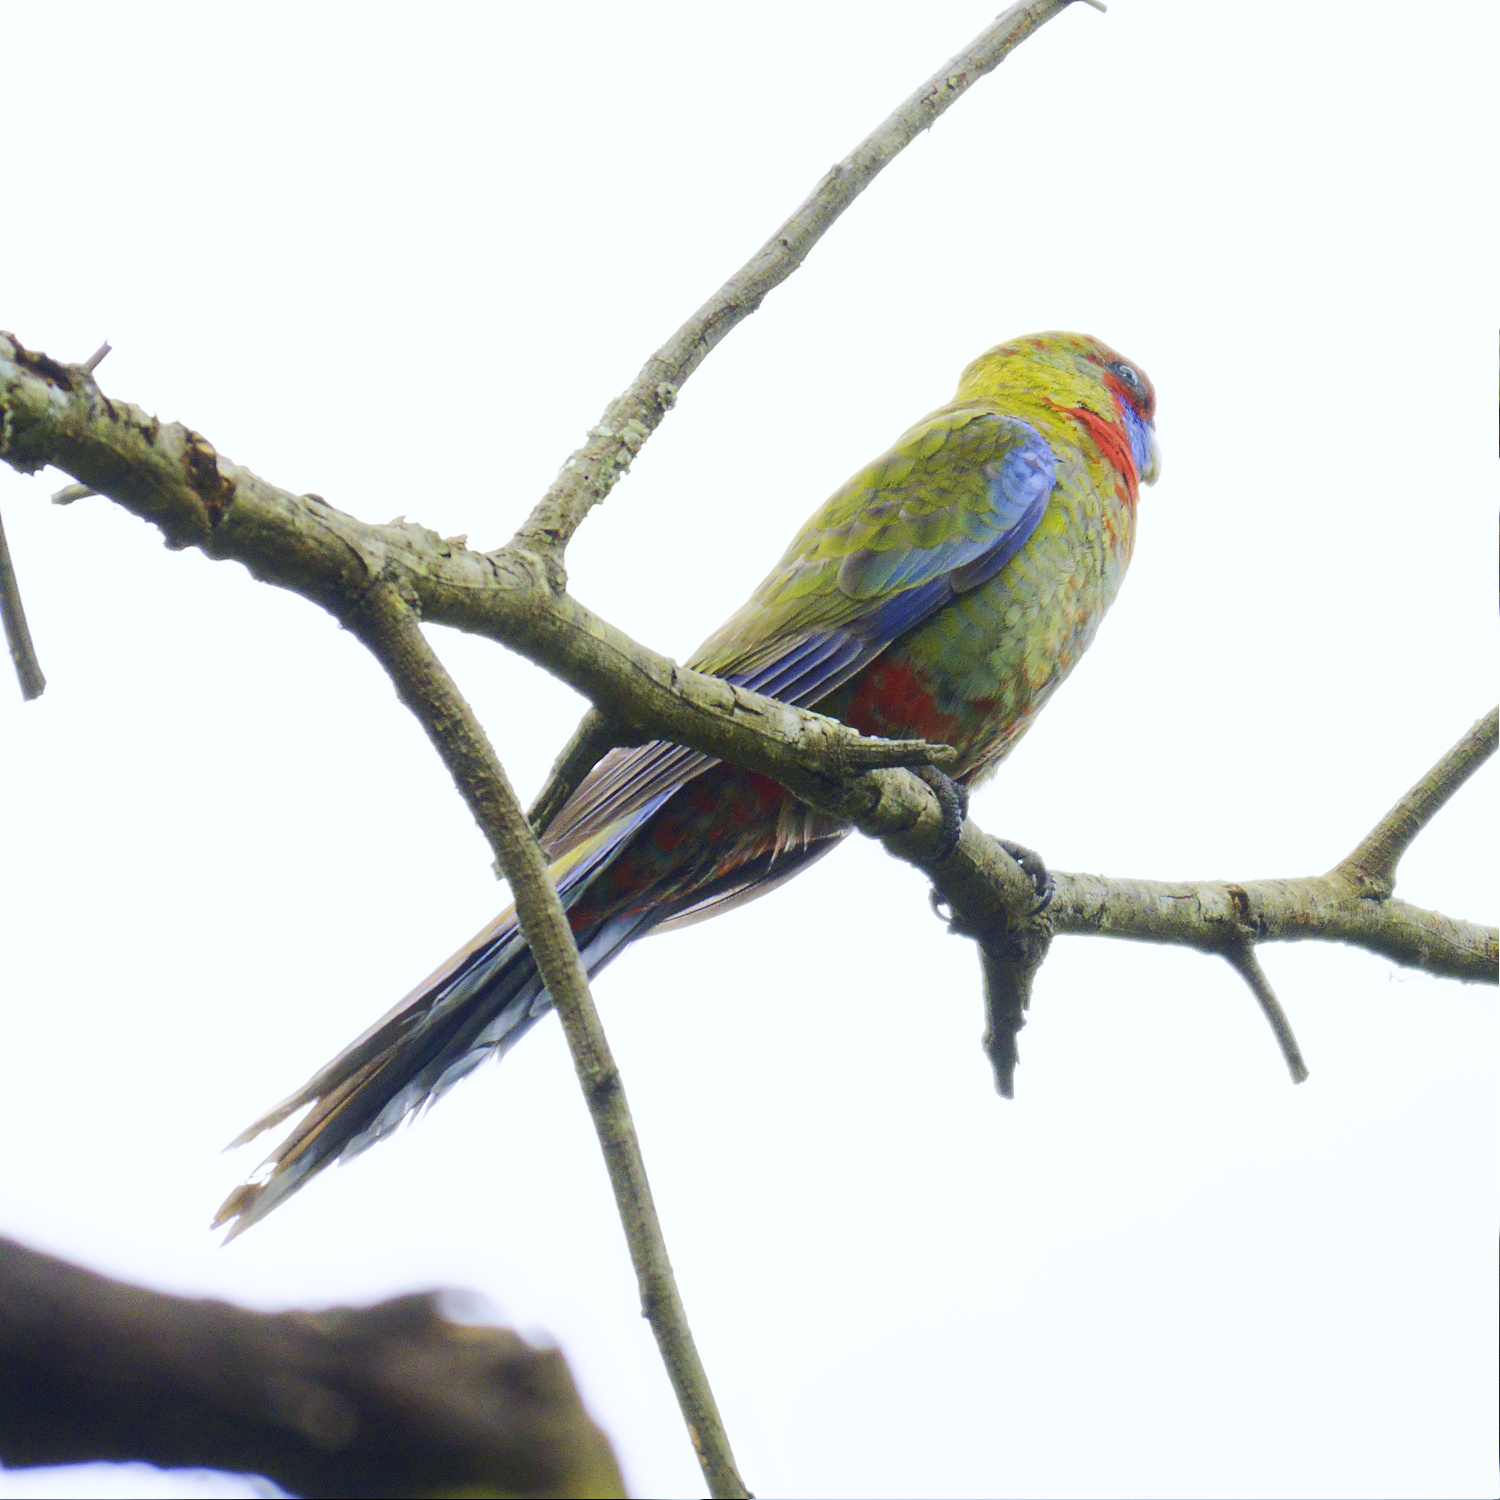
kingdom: Animalia
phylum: Chordata
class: Aves
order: Psittaciformes
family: Psittacidae
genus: Platycercus
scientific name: Platycercus elegans
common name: Crimson rosella
